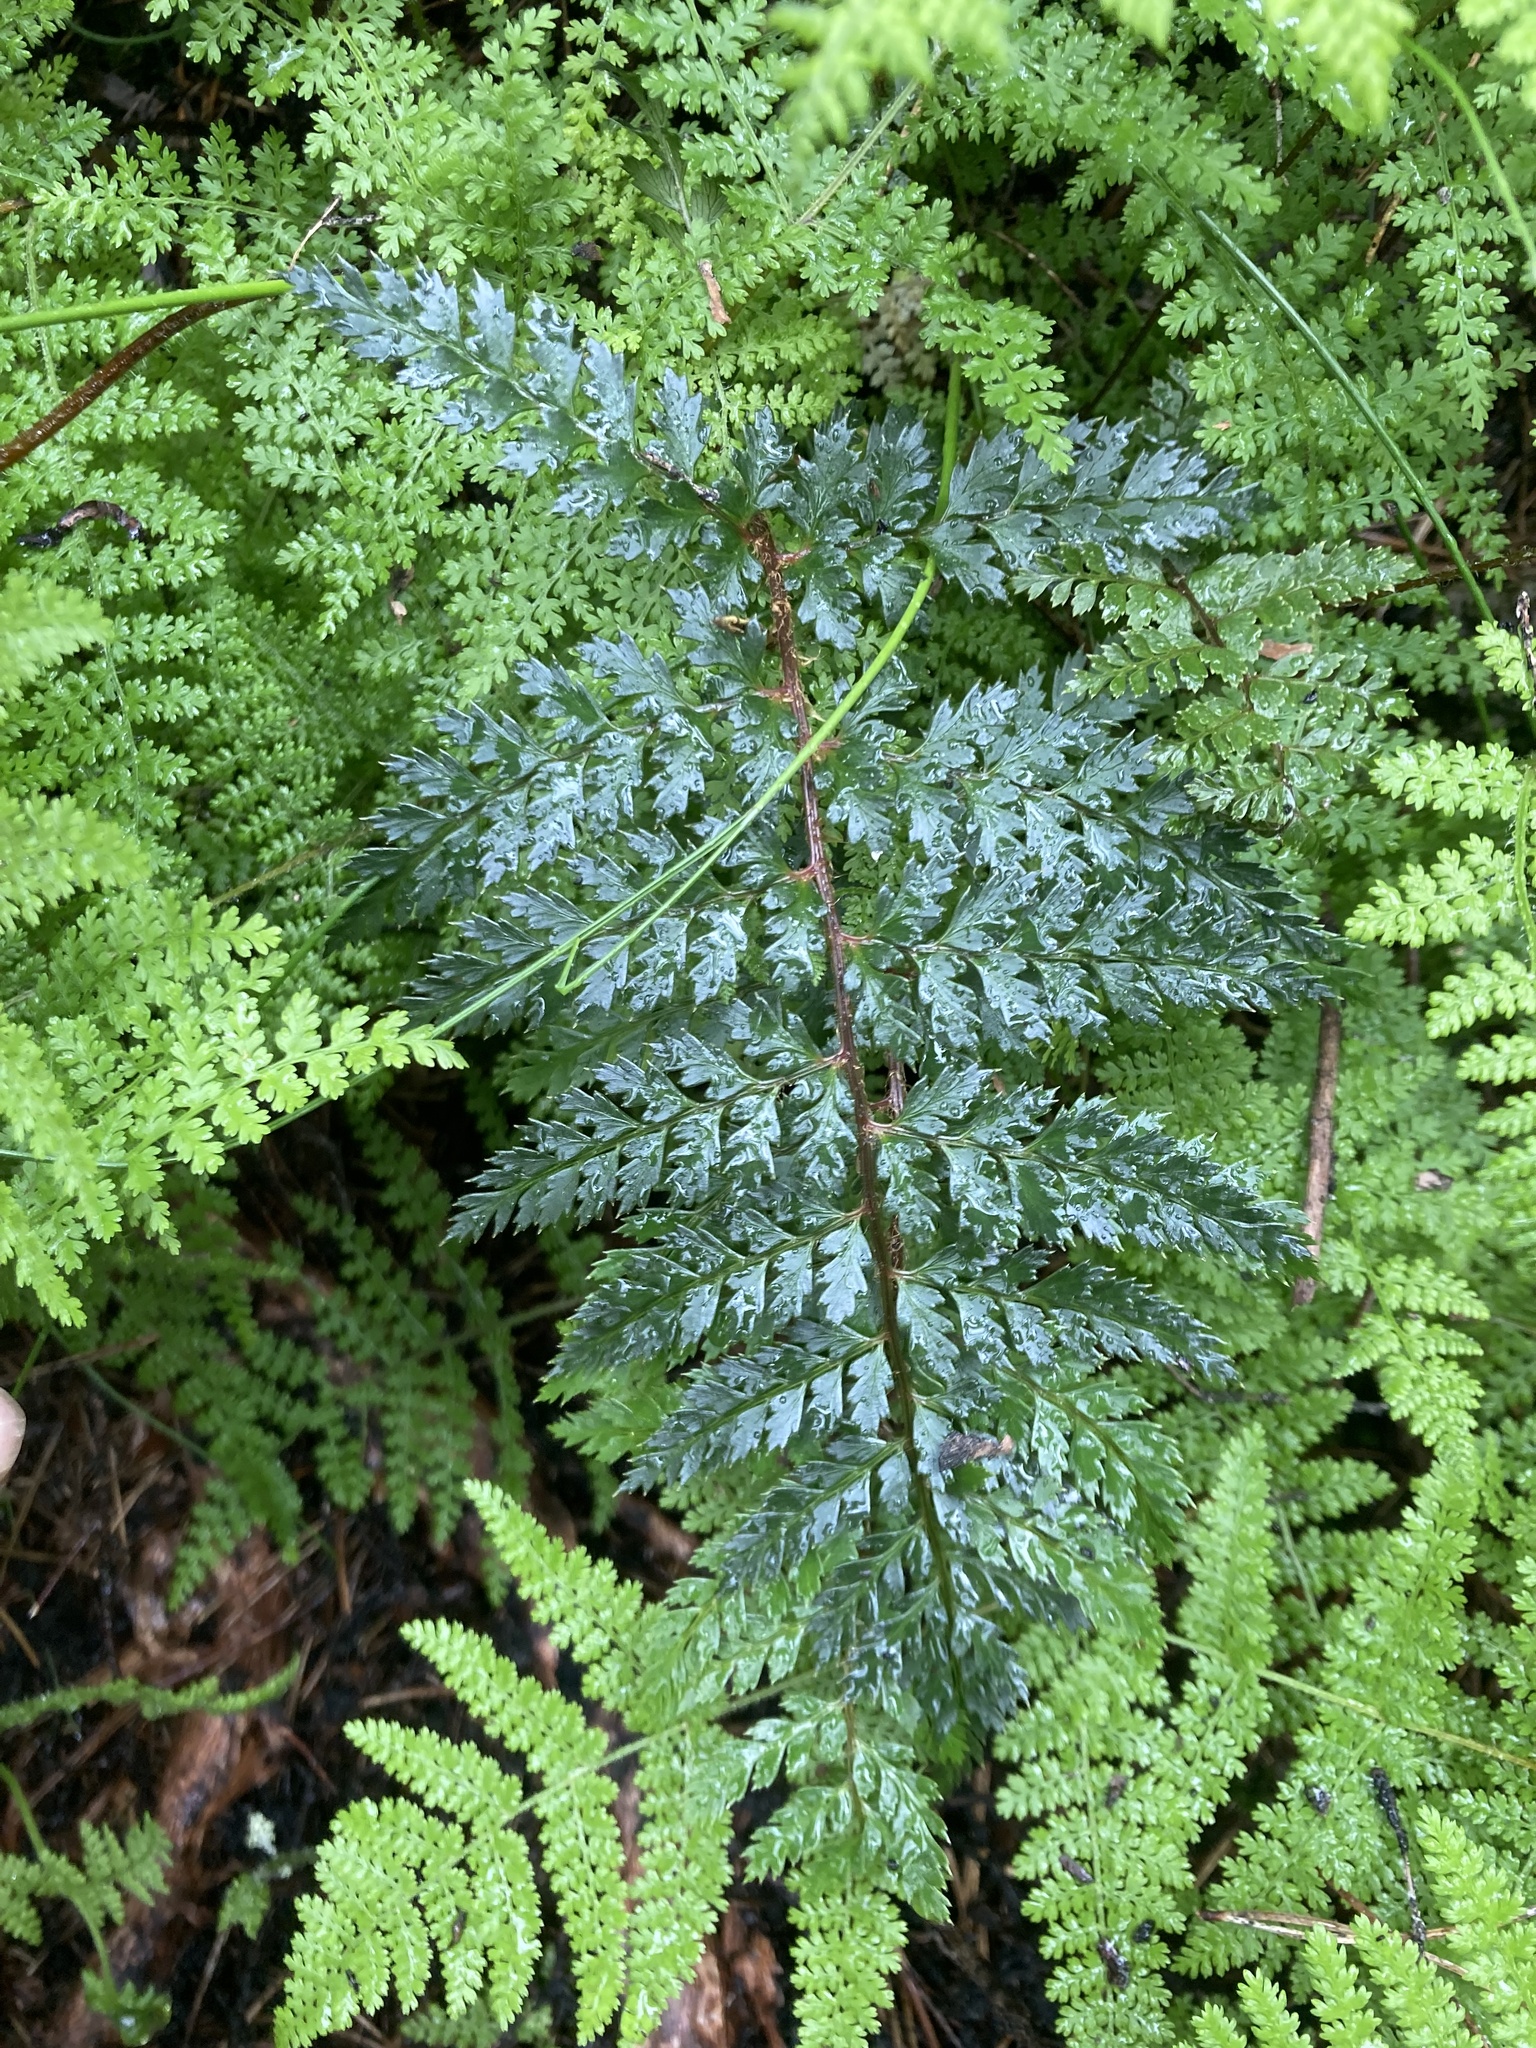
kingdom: Plantae
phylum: Tracheophyta
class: Polypodiopsida
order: Polypodiales
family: Dryopteridaceae
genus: Polystichum
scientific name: Polystichum vestitum
